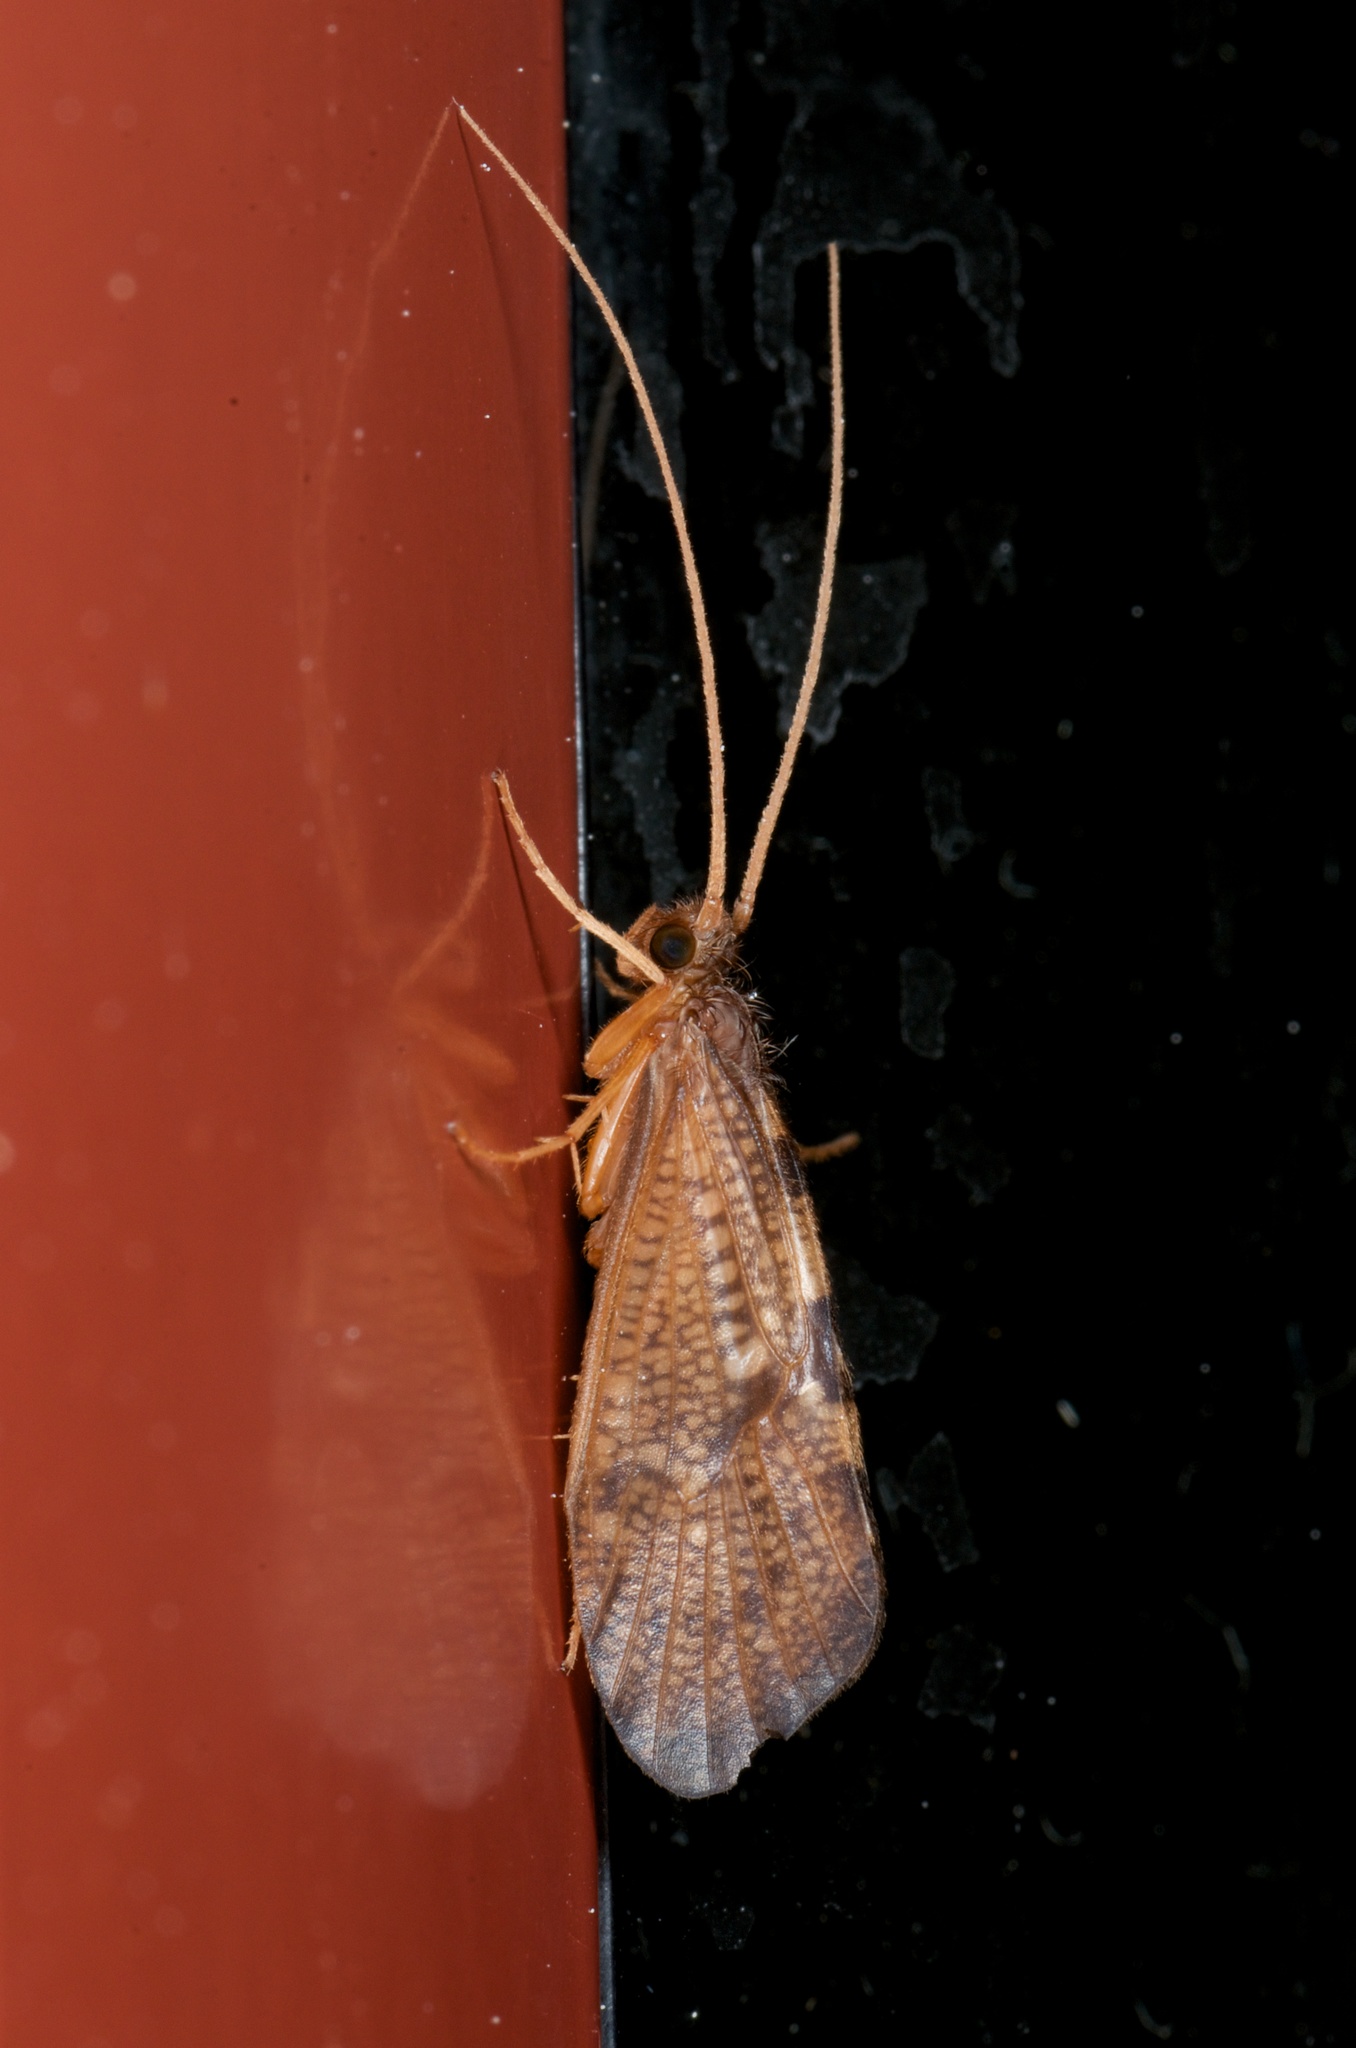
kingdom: Animalia
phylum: Arthropoda
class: Insecta
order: Trichoptera
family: Oeconesidae
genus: Oeconesus
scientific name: Oeconesus maori
